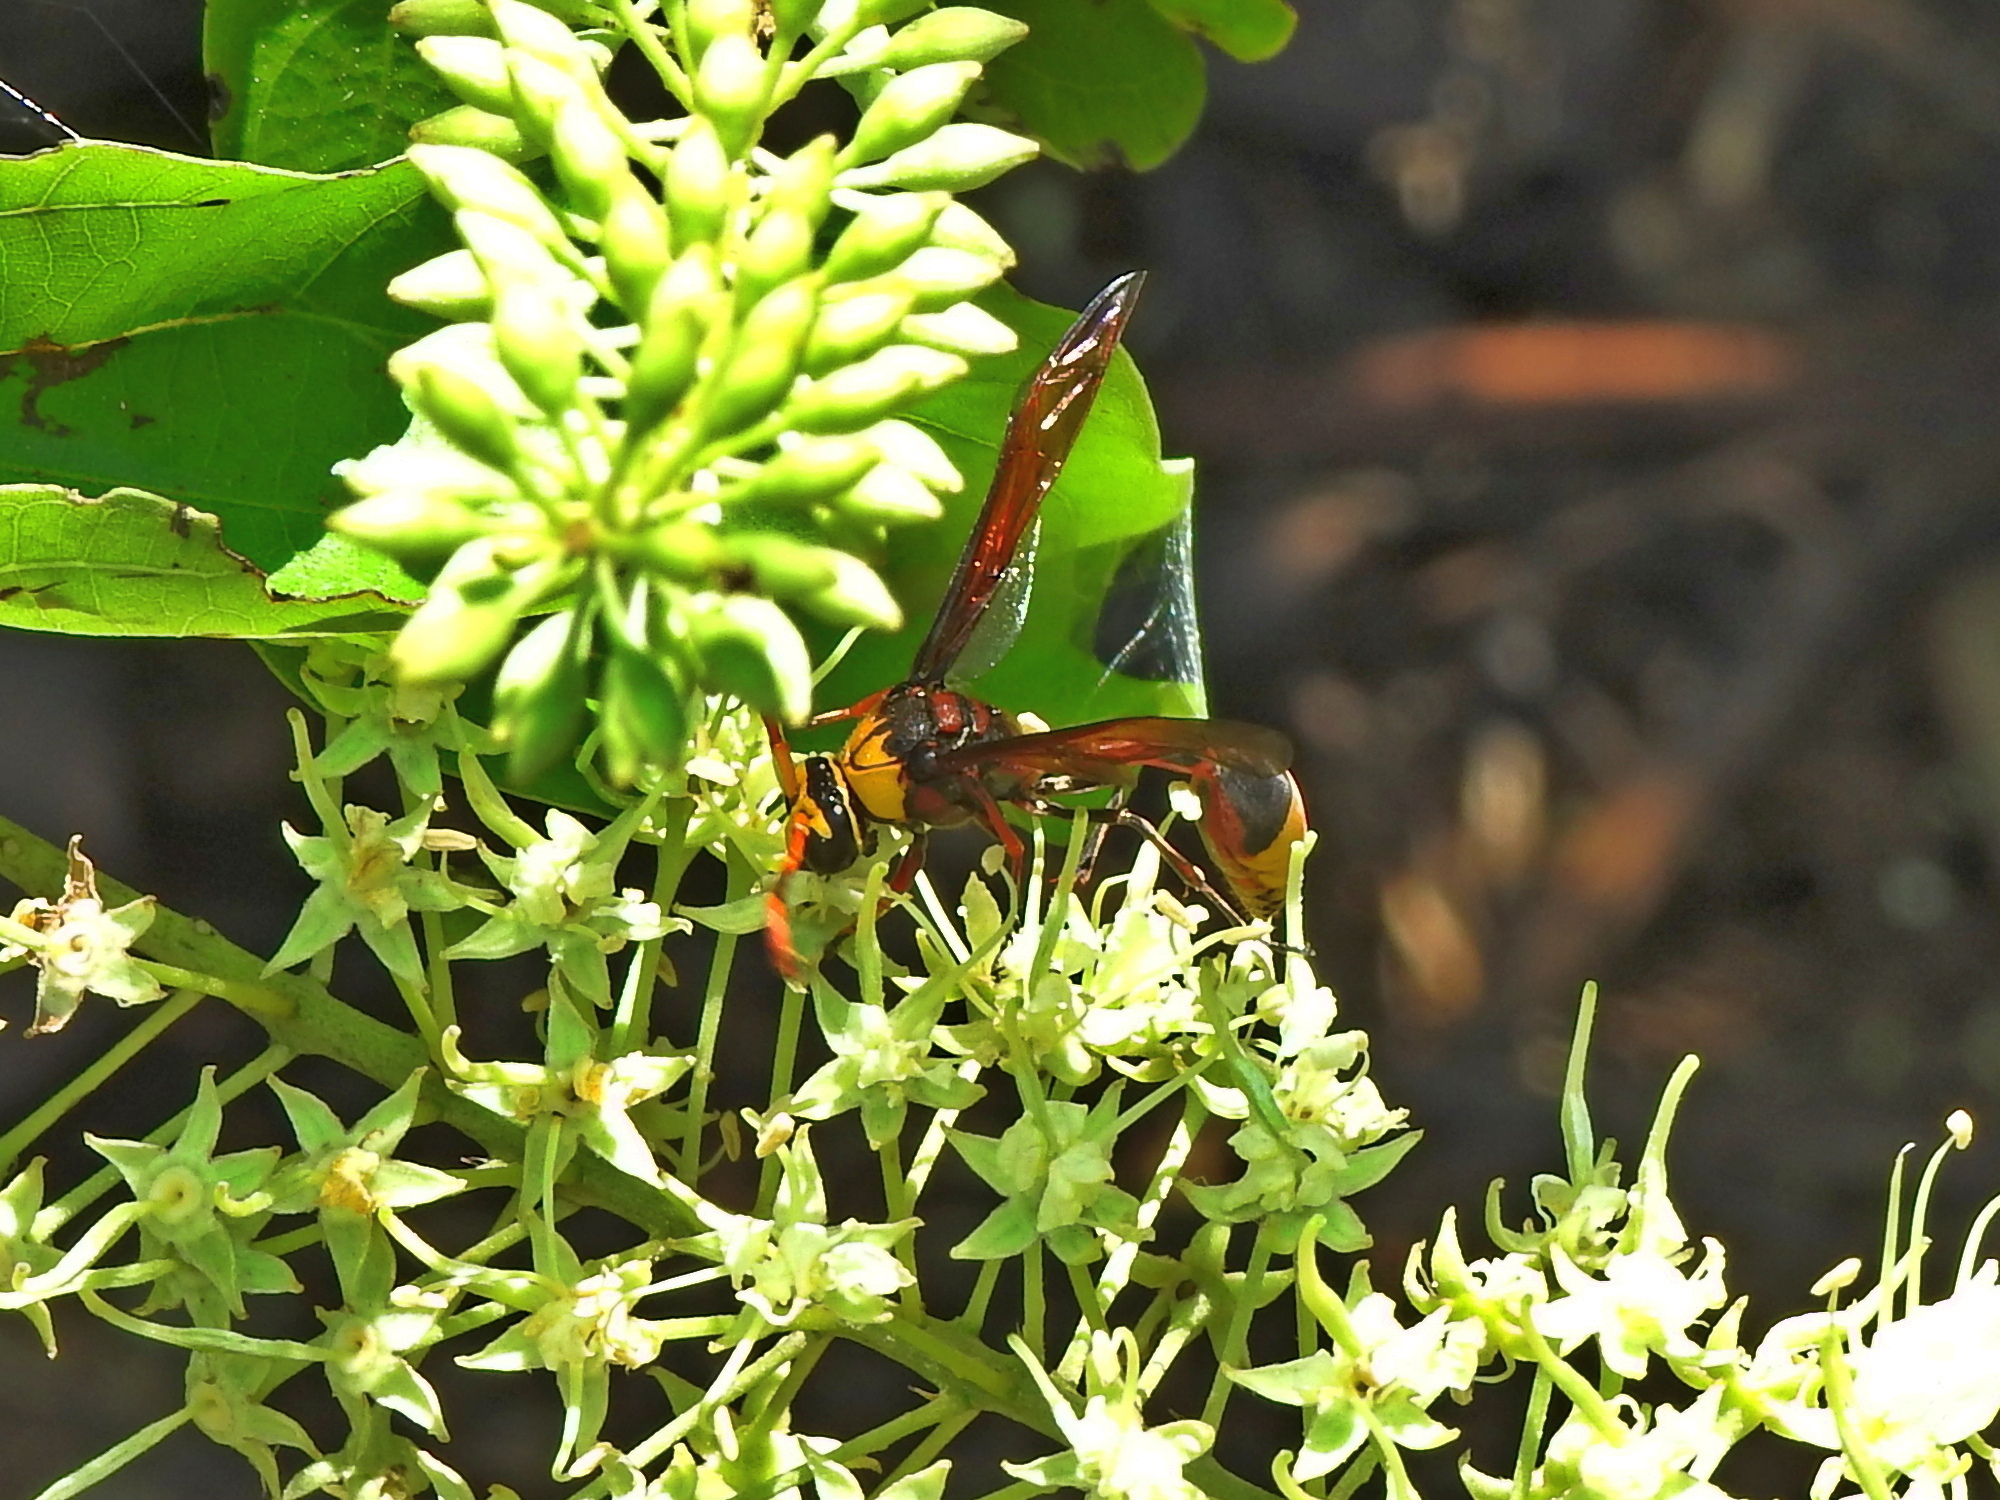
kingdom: Animalia
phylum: Arthropoda
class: Insecta
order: Hymenoptera
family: Eumenidae
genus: Delta
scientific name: Delta pyriforme
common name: Wasp
